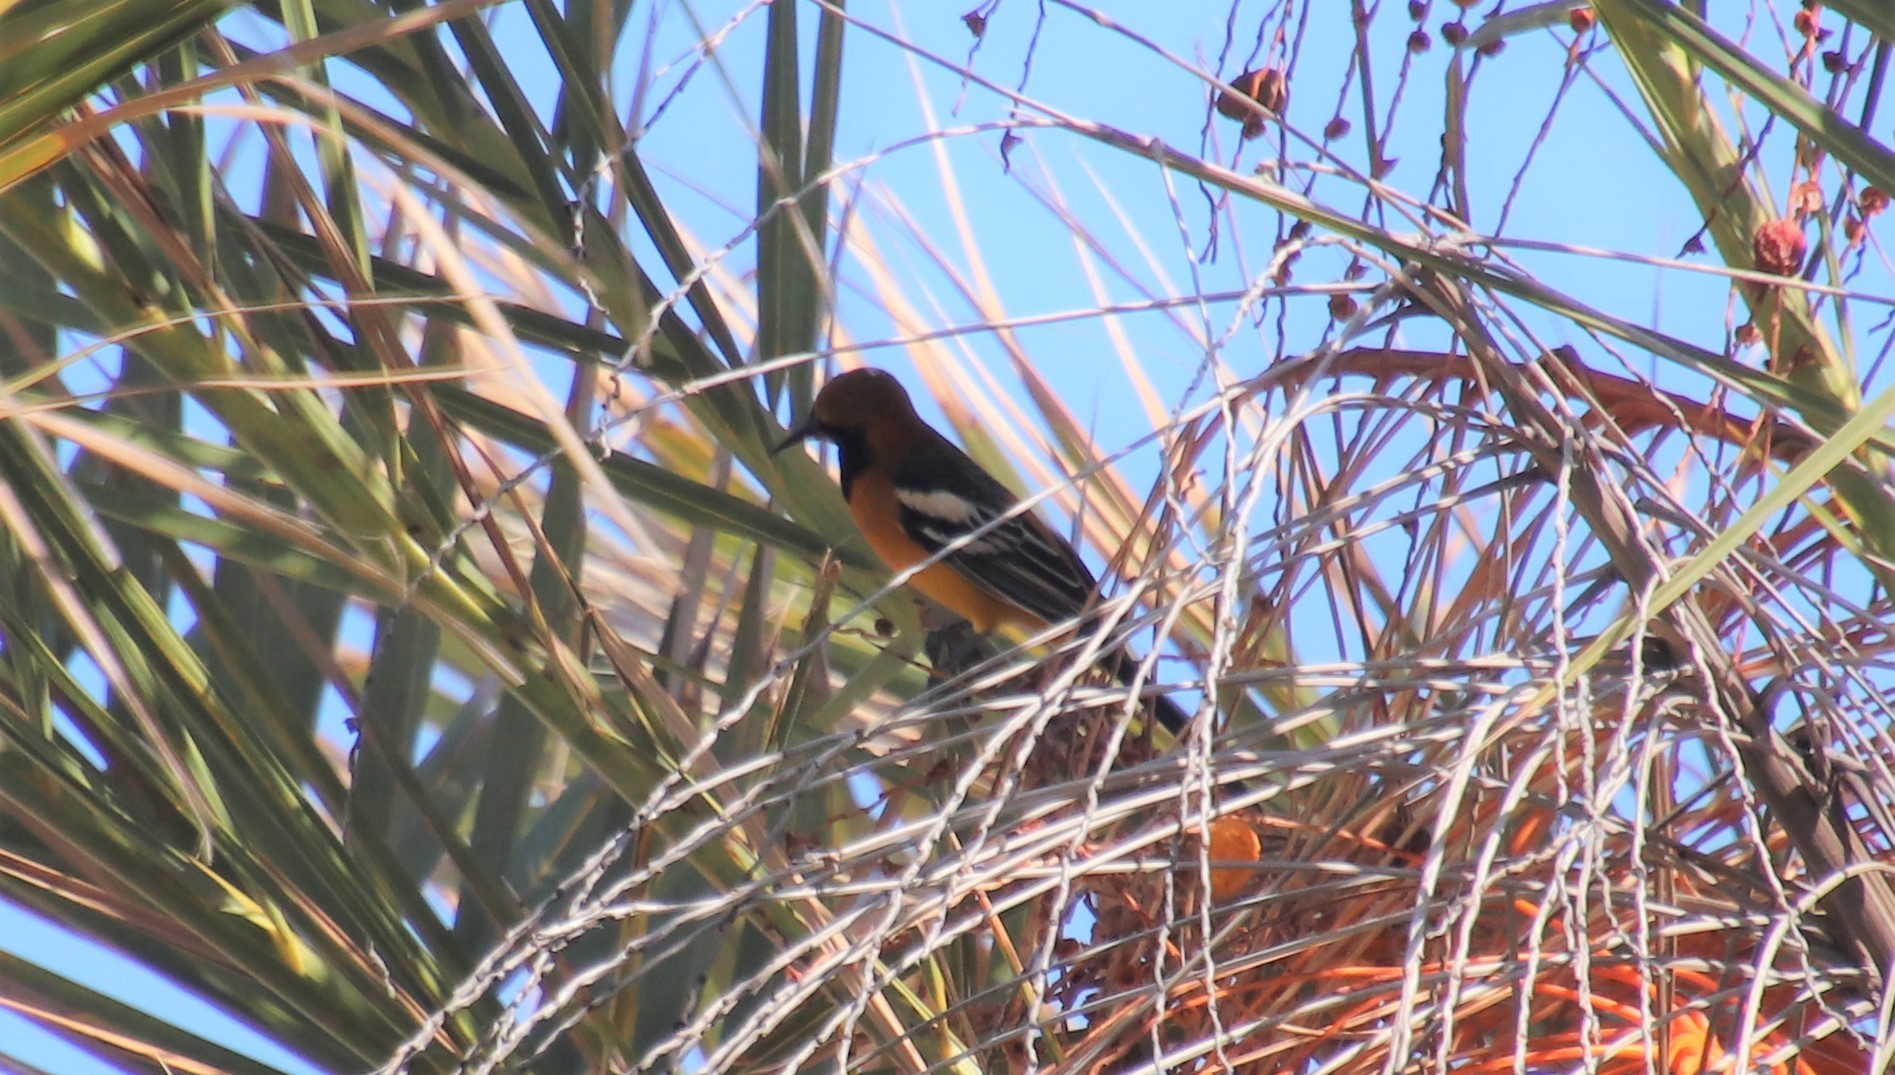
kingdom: Animalia
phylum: Chordata
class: Aves
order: Passeriformes
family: Icteridae
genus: Icterus
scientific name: Icterus cucullatus
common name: Hooded oriole
